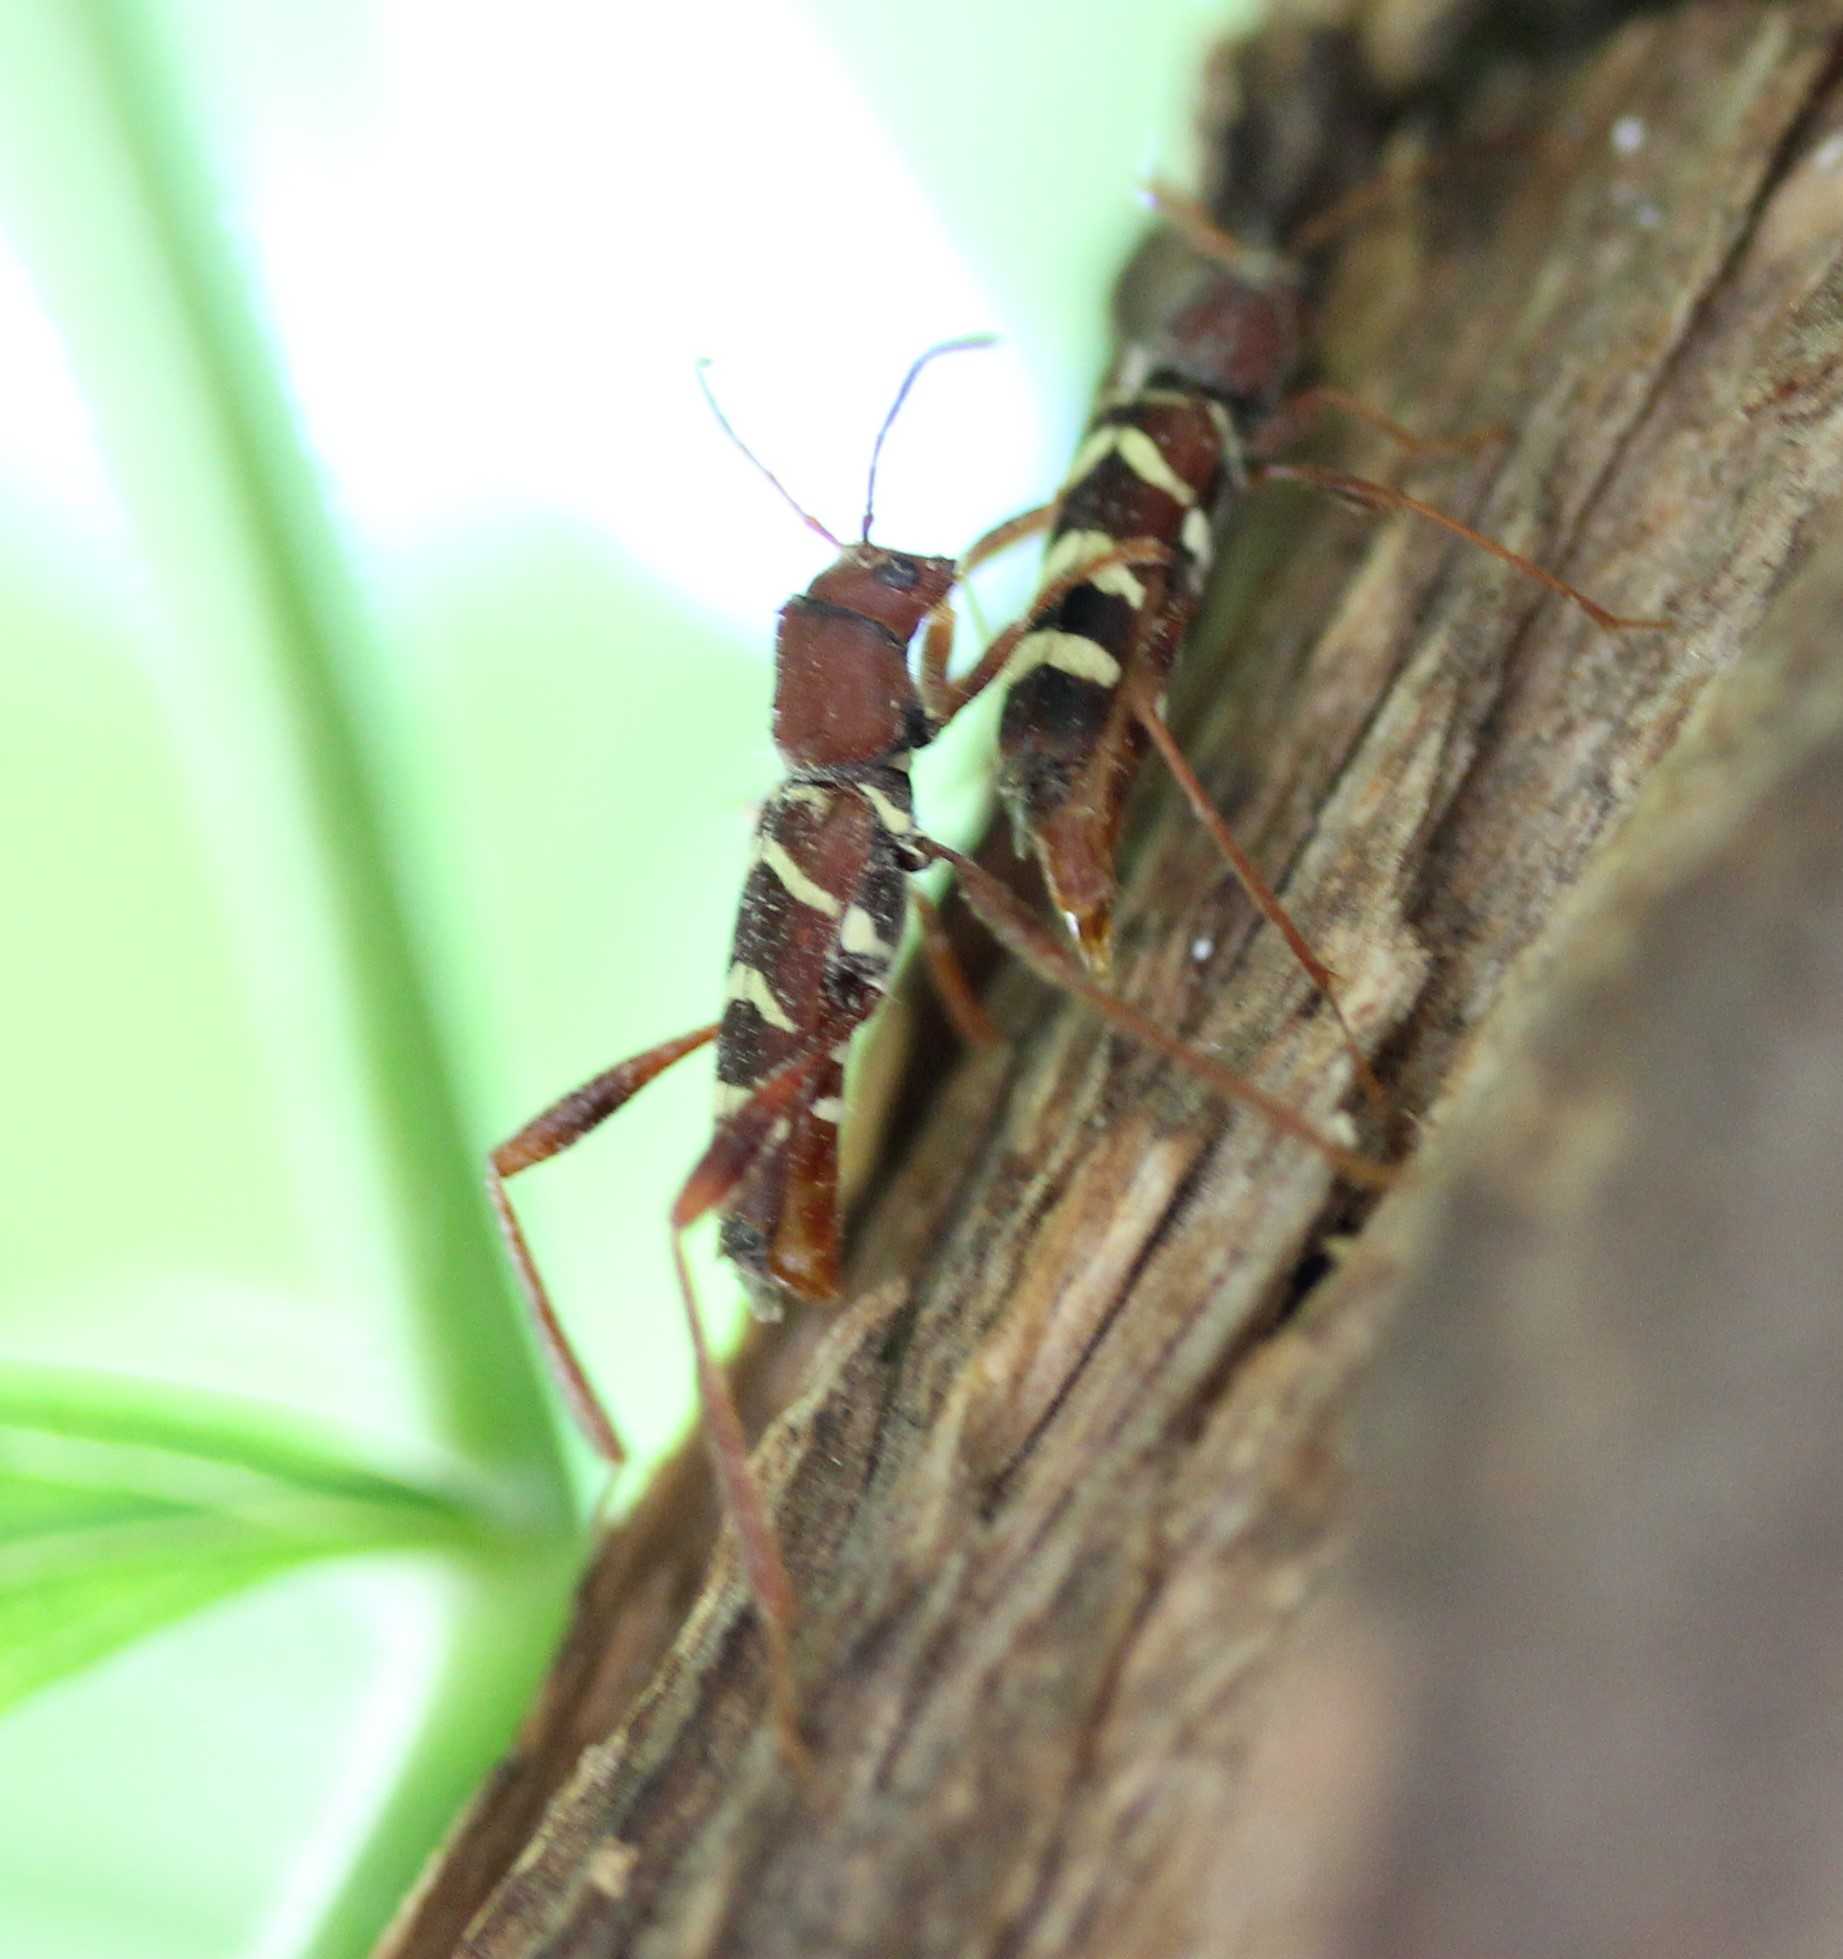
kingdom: Animalia
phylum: Arthropoda
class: Insecta
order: Coleoptera
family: Cerambycidae
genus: Neoclytus
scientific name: Neoclytus acuminatus
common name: Read-headed ash borer
